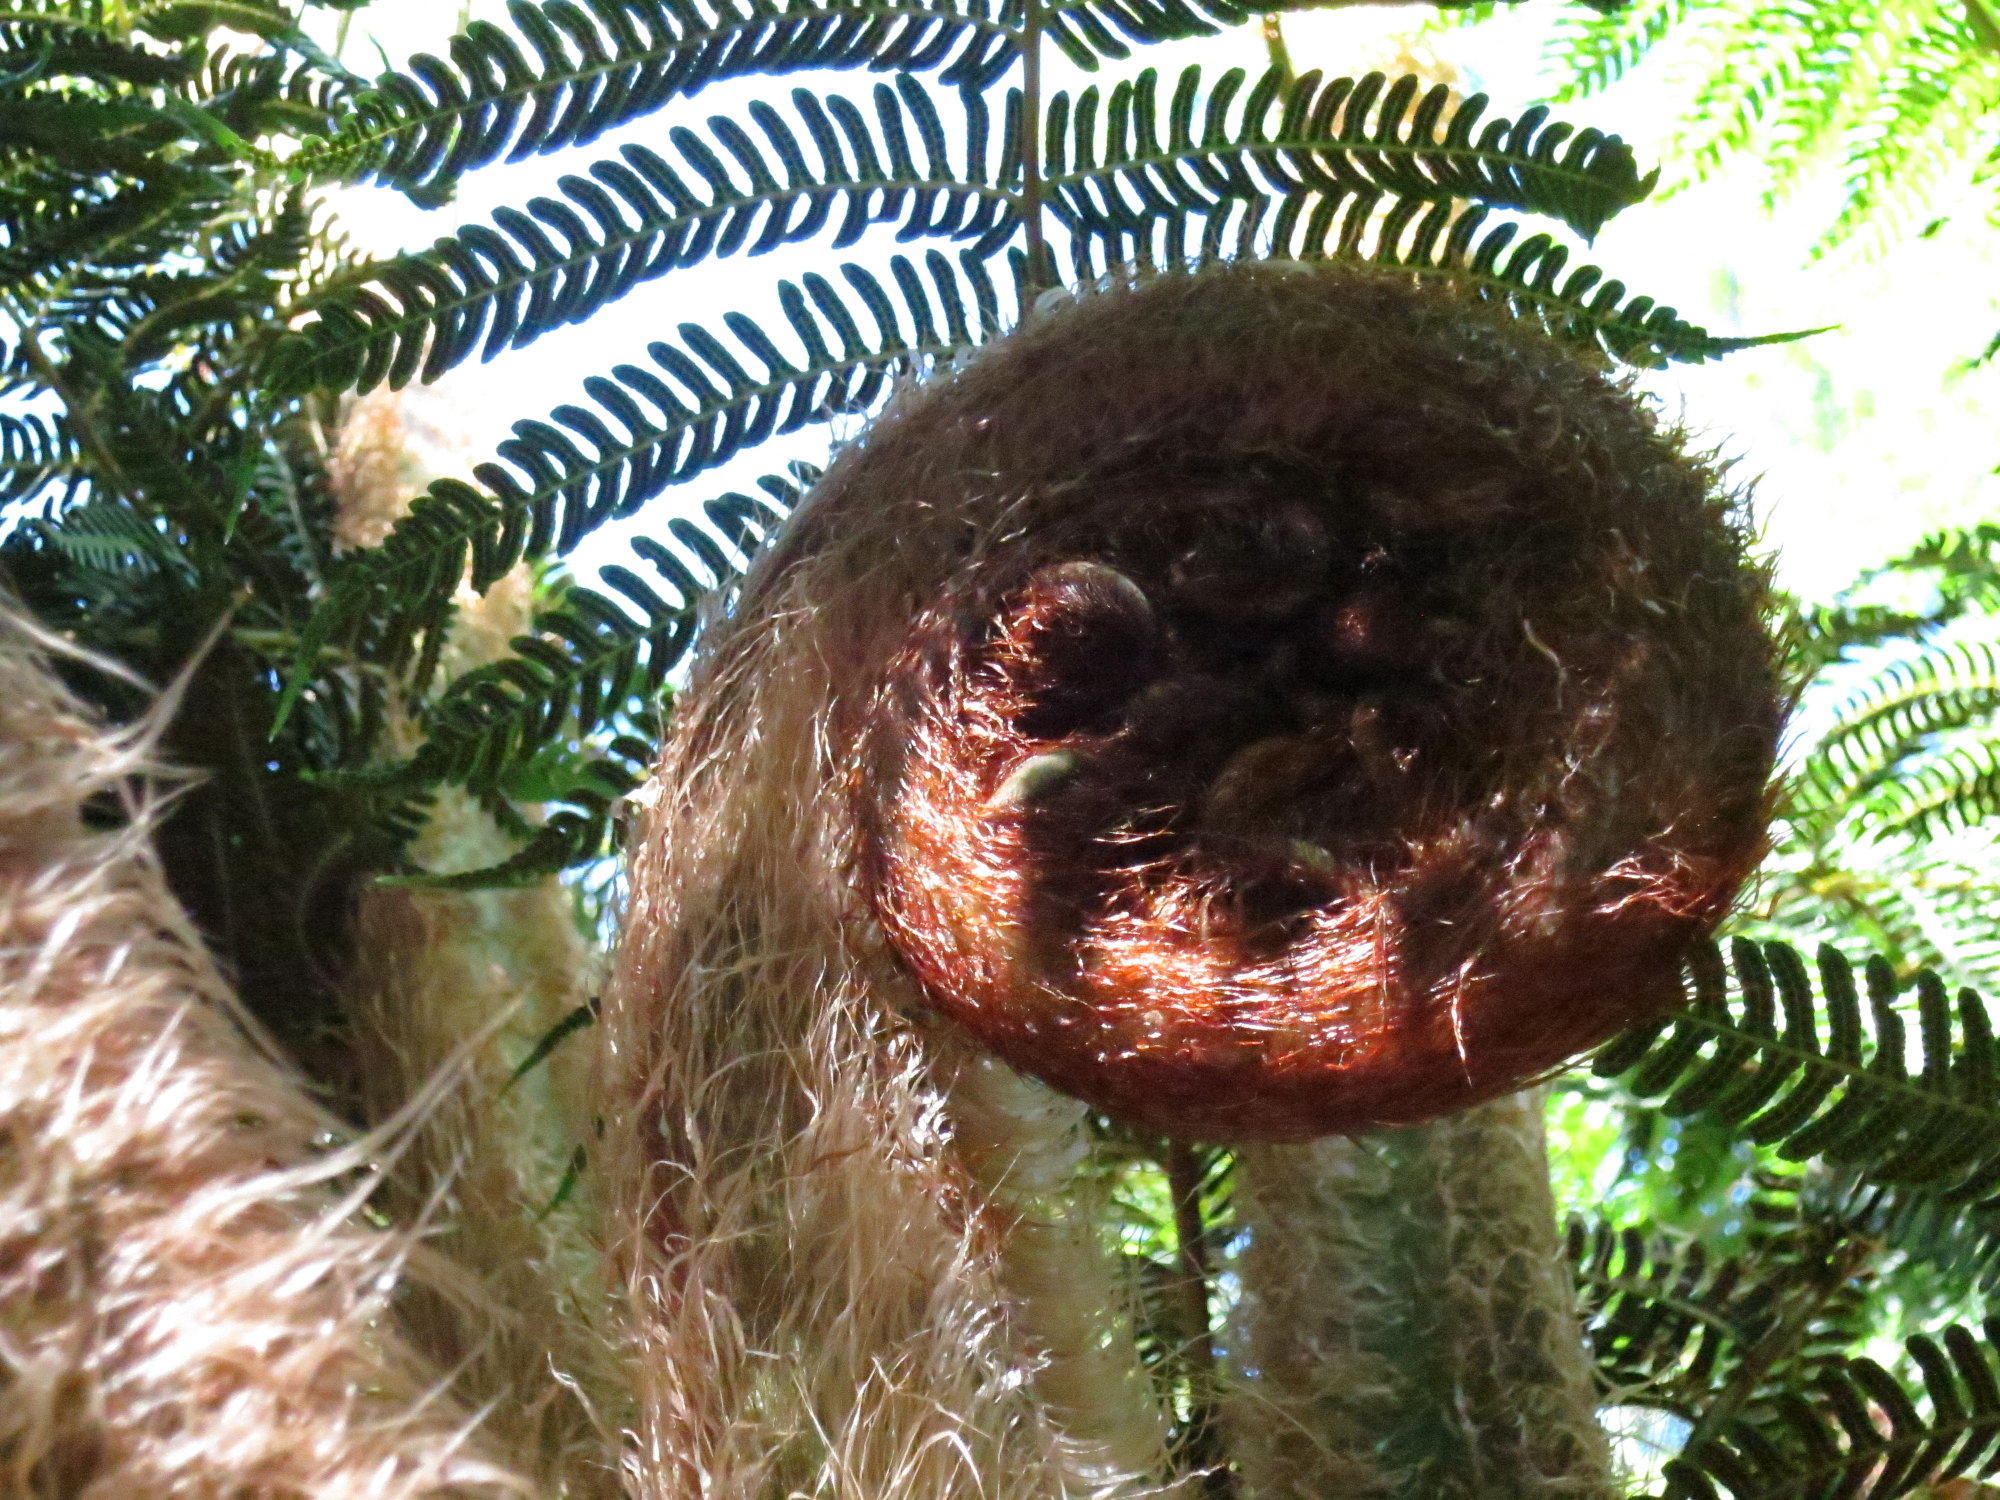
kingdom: Plantae
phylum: Tracheophyta
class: Polypodiopsida
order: Cyatheales
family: Cyatheaceae
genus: Sphaeropteris
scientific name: Sphaeropteris cooperi
